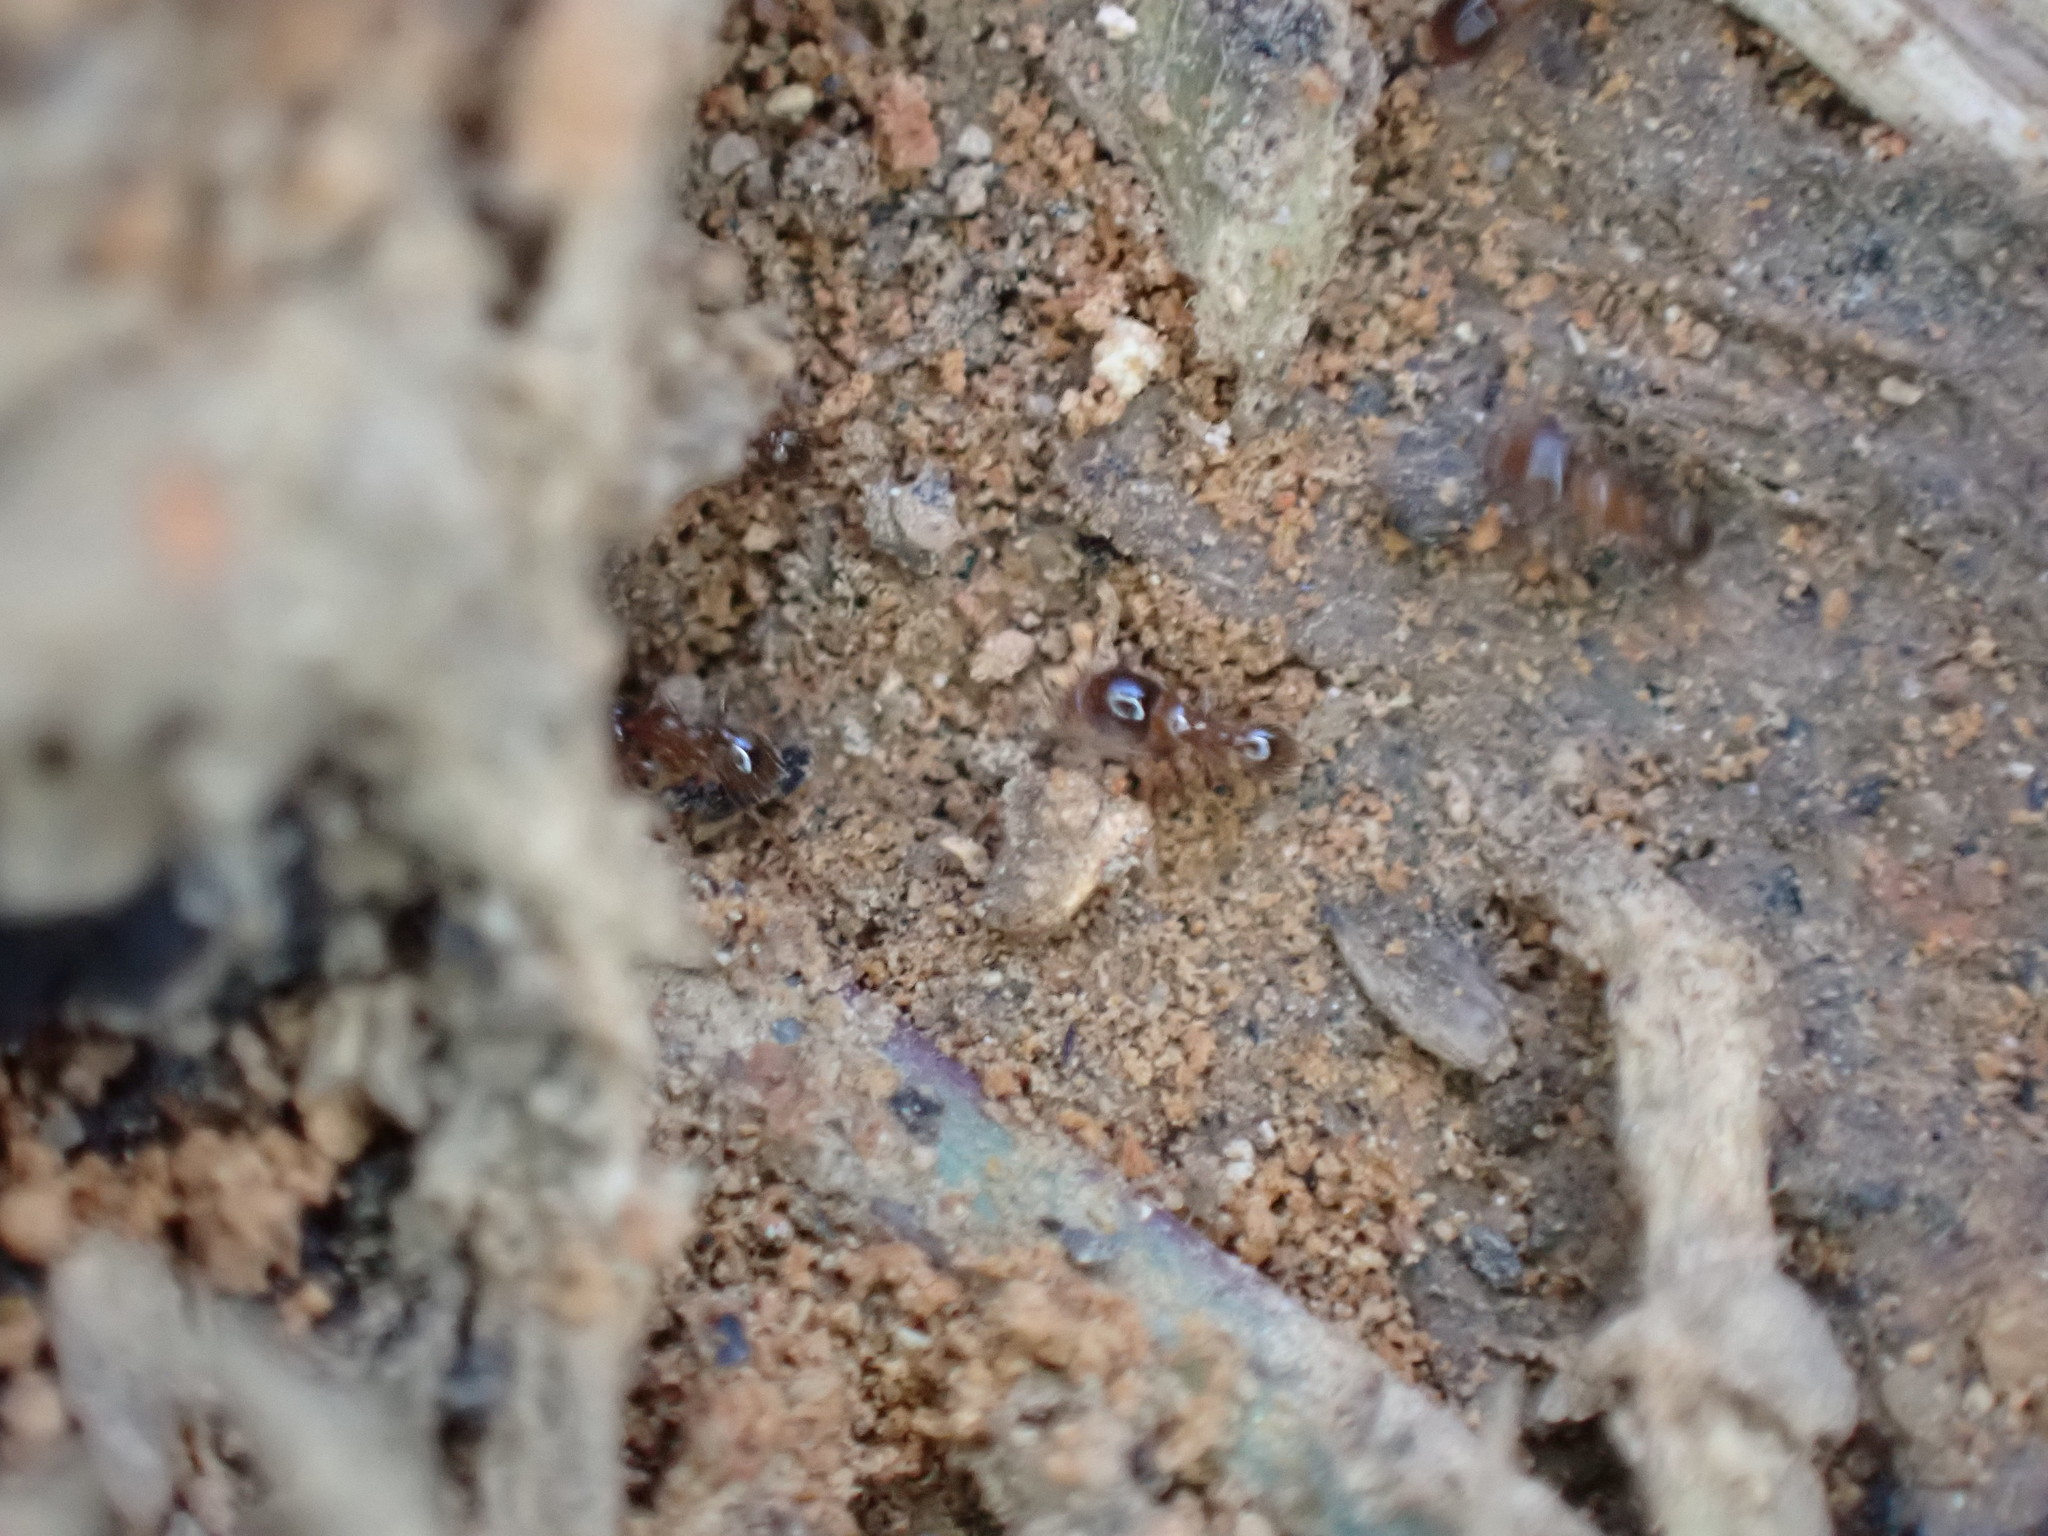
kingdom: Animalia
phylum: Arthropoda
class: Insecta
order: Hymenoptera
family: Formicidae
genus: Pheidole
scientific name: Pheidole bicarinata
